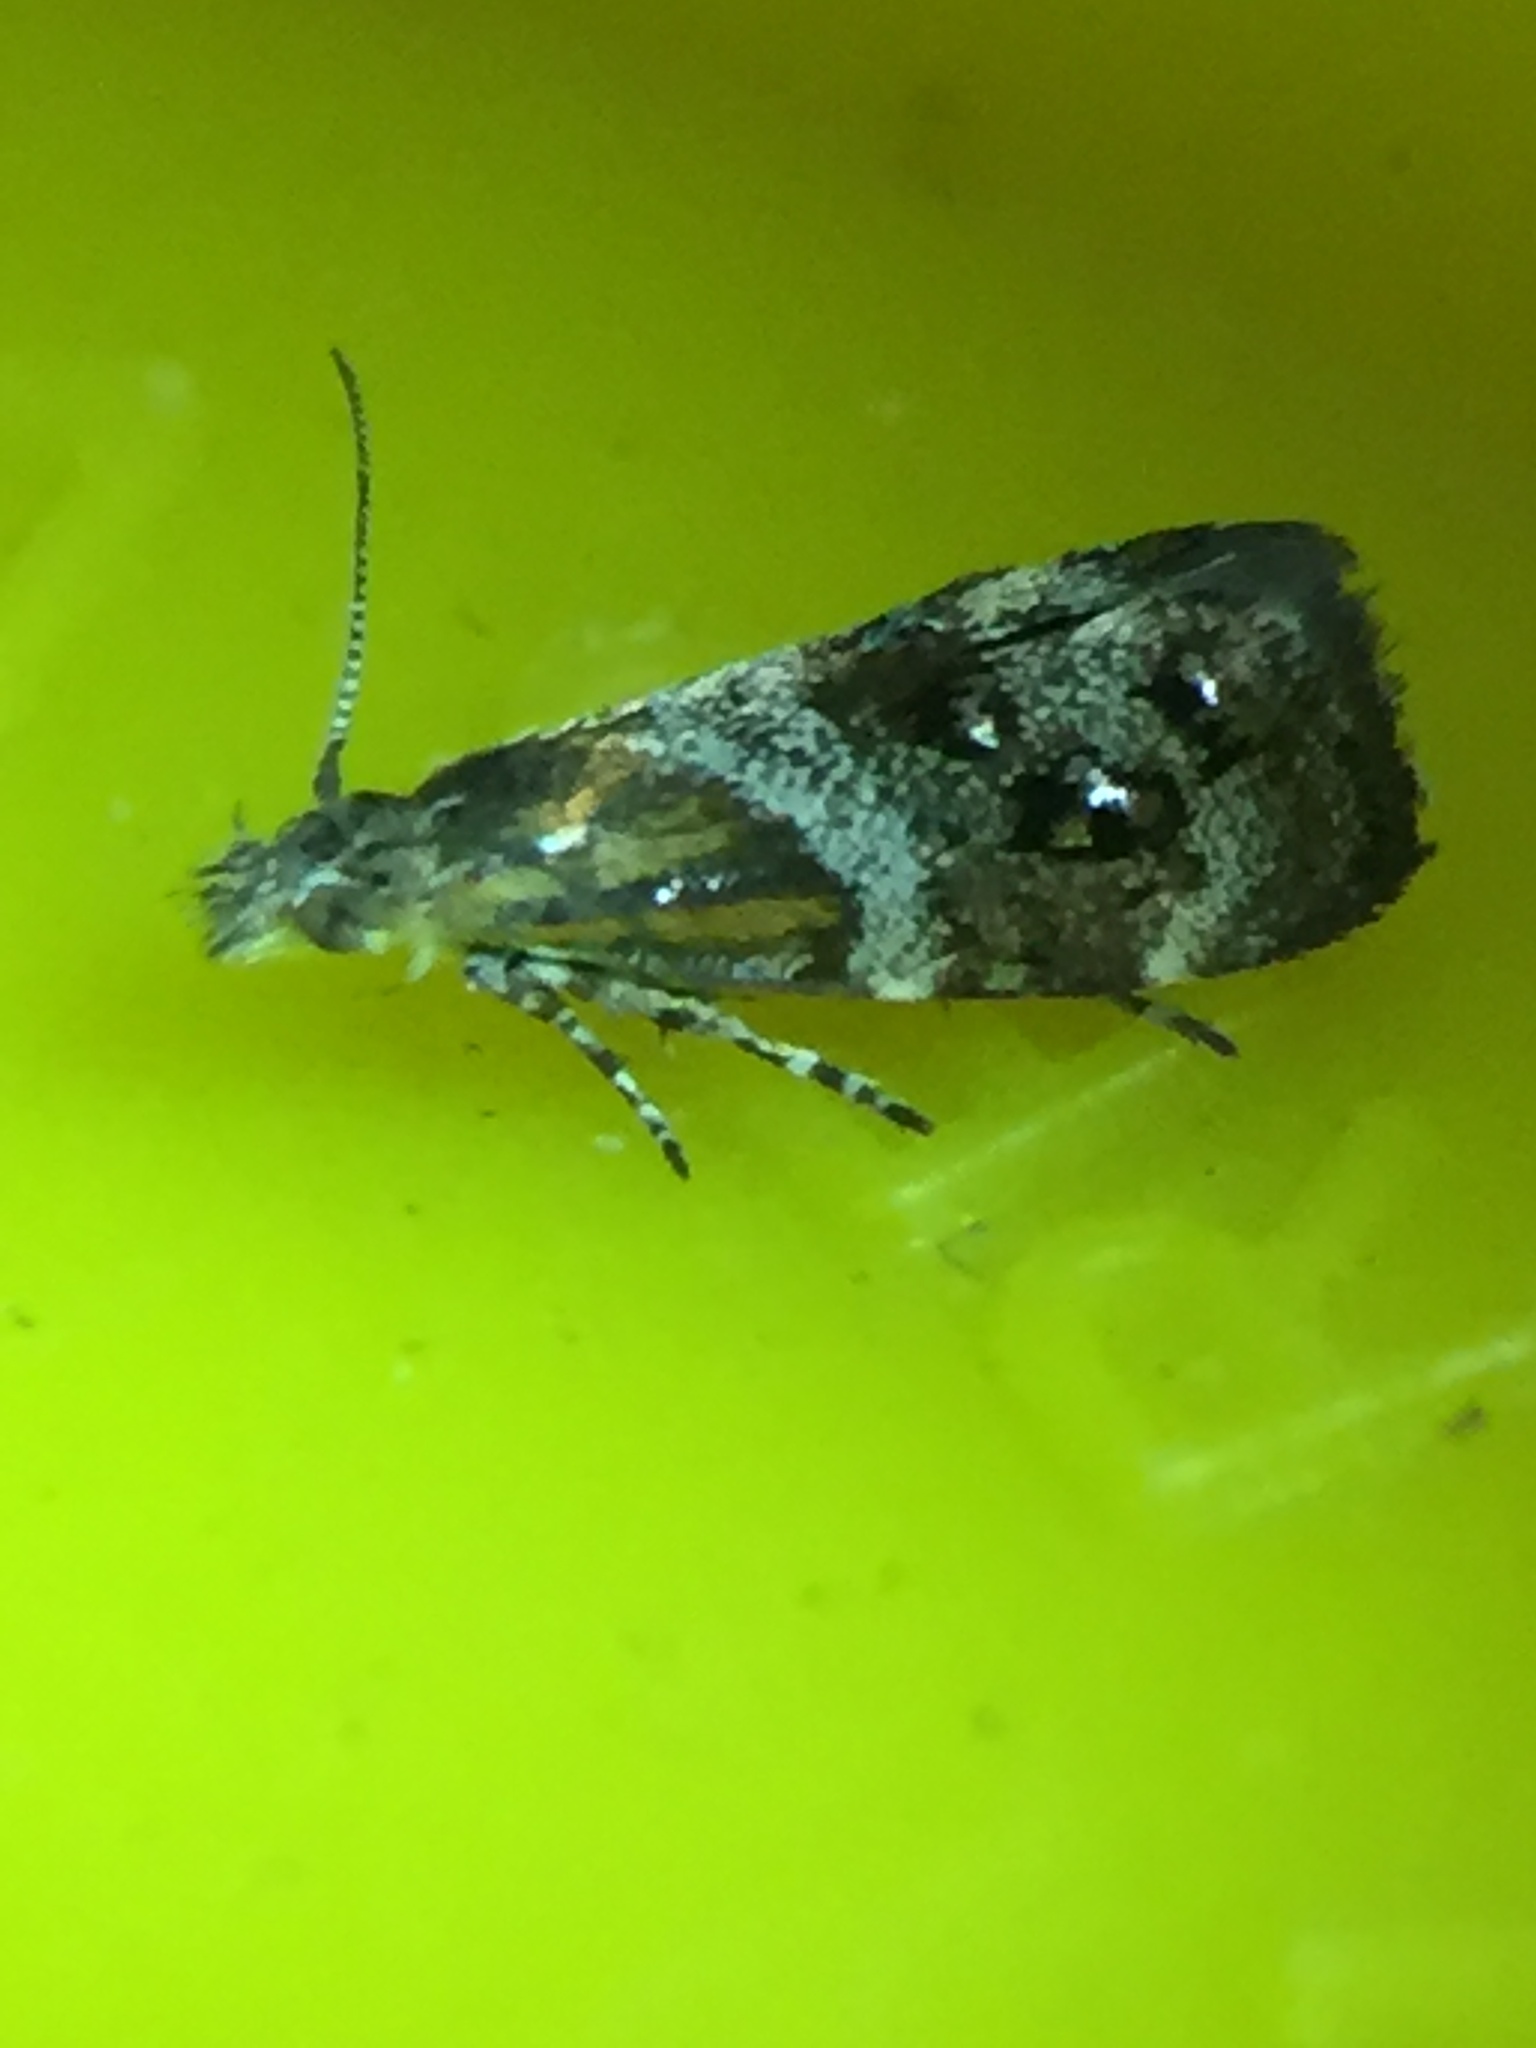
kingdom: Animalia
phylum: Arthropoda
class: Insecta
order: Lepidoptera
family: Choreutidae
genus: Tebenna
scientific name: Tebenna micalis
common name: Vagrant twitcher
